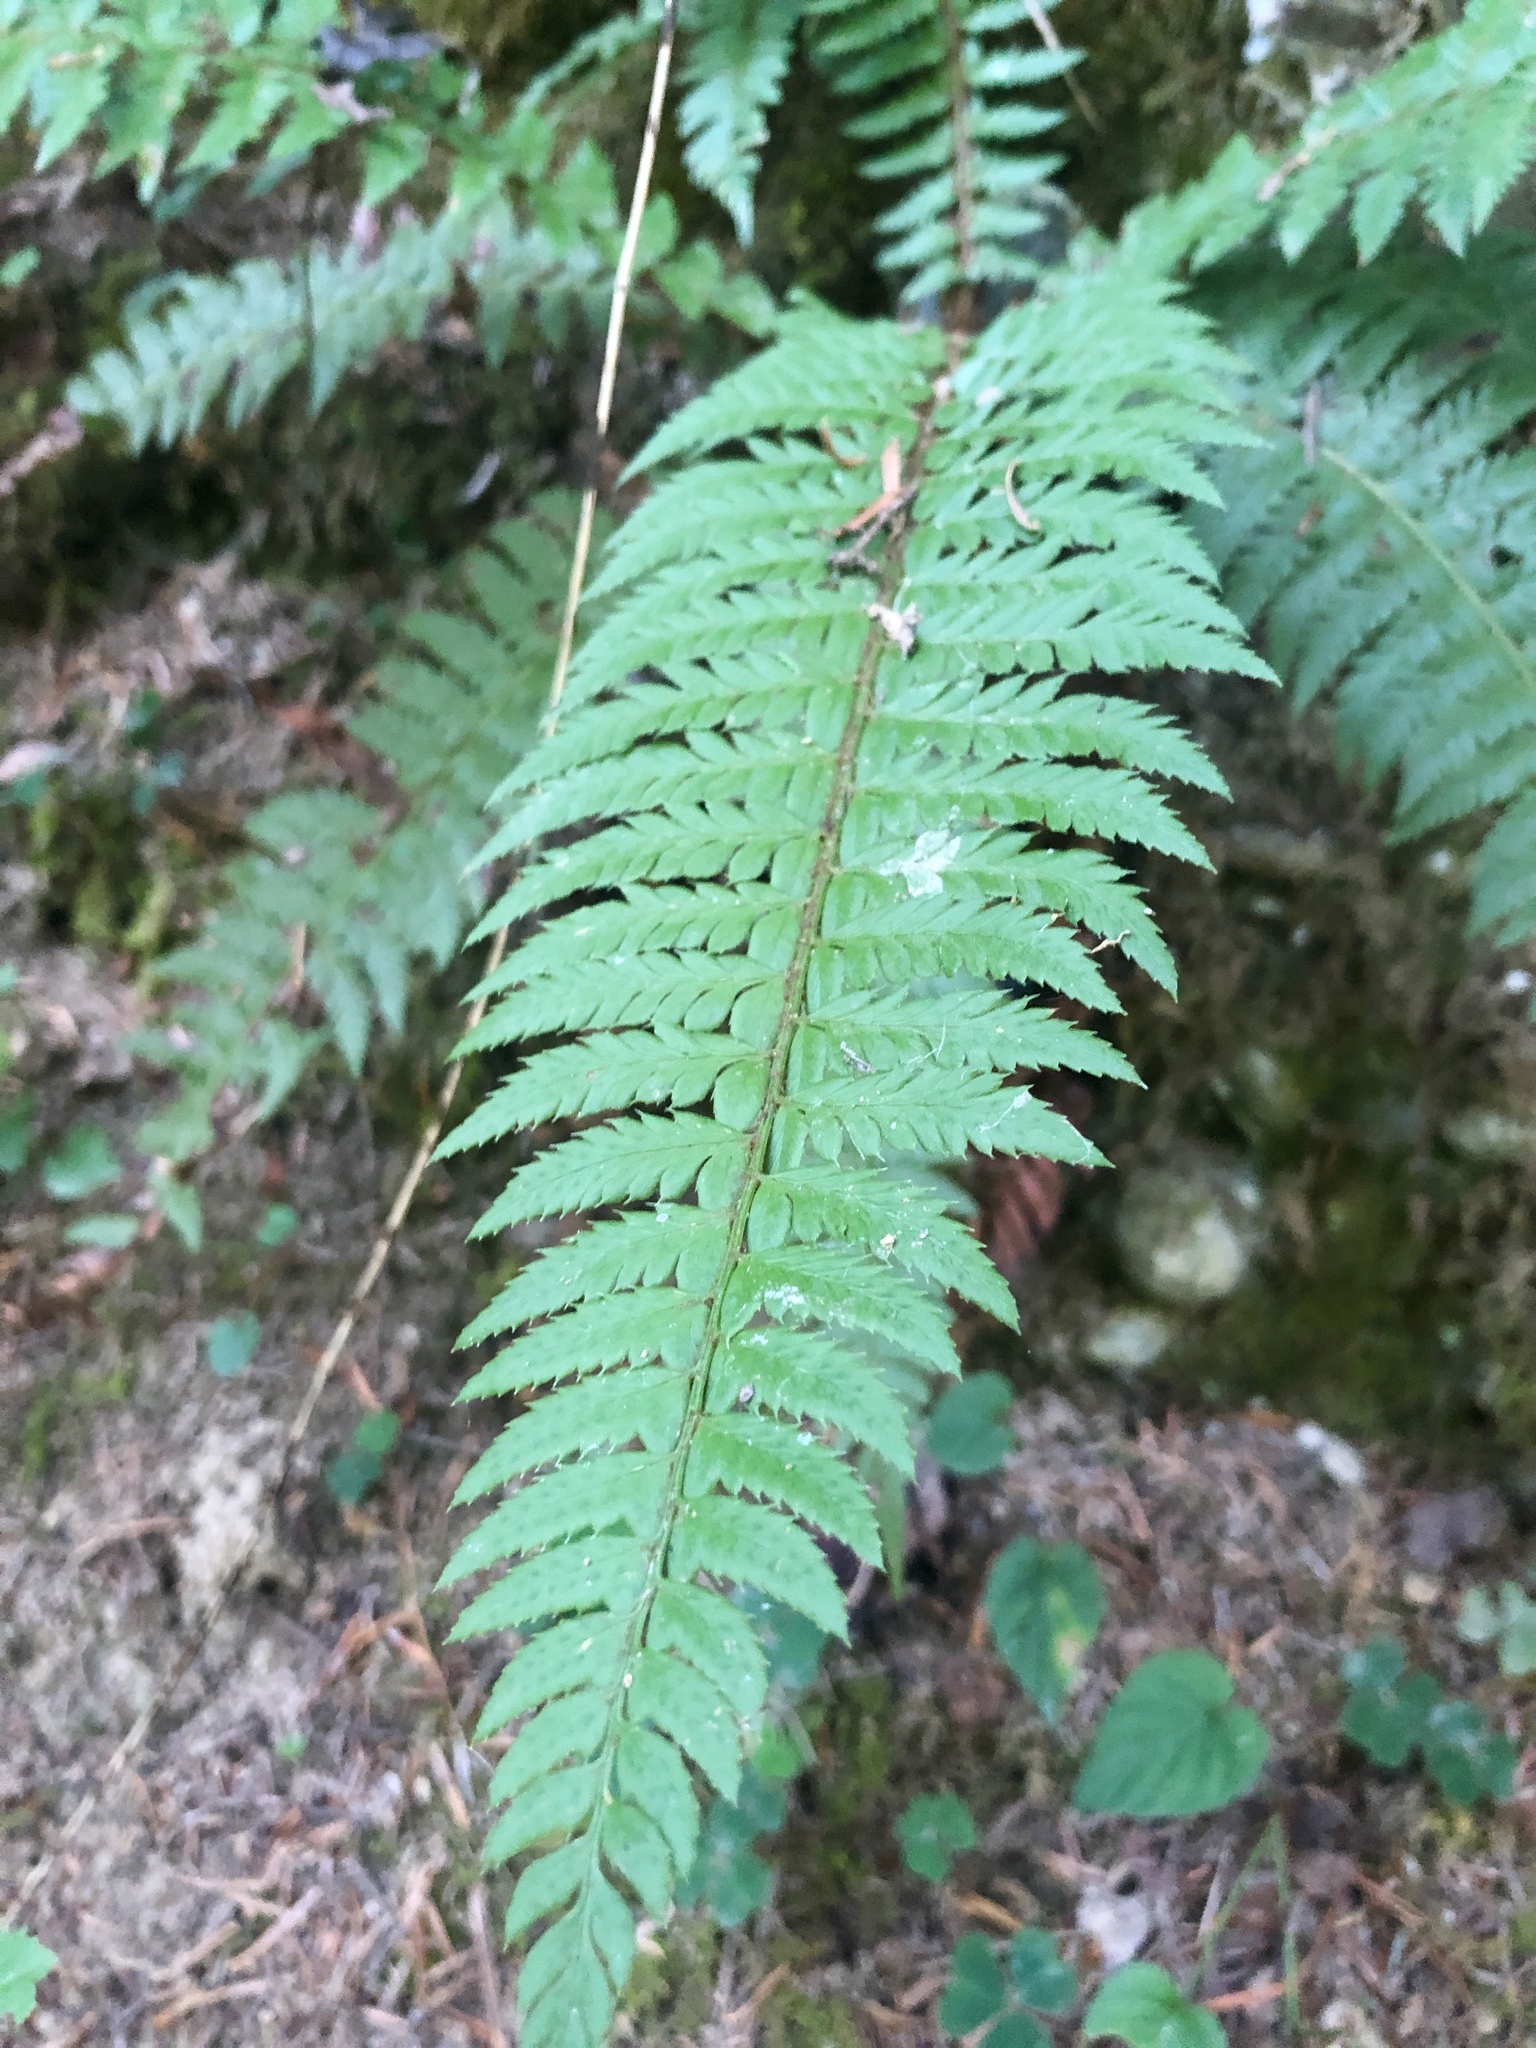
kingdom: Plantae
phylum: Tracheophyta
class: Polypodiopsida
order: Polypodiales
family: Dryopteridaceae
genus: Polystichum
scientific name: Polystichum aculeatum
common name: Hard shield-fern
